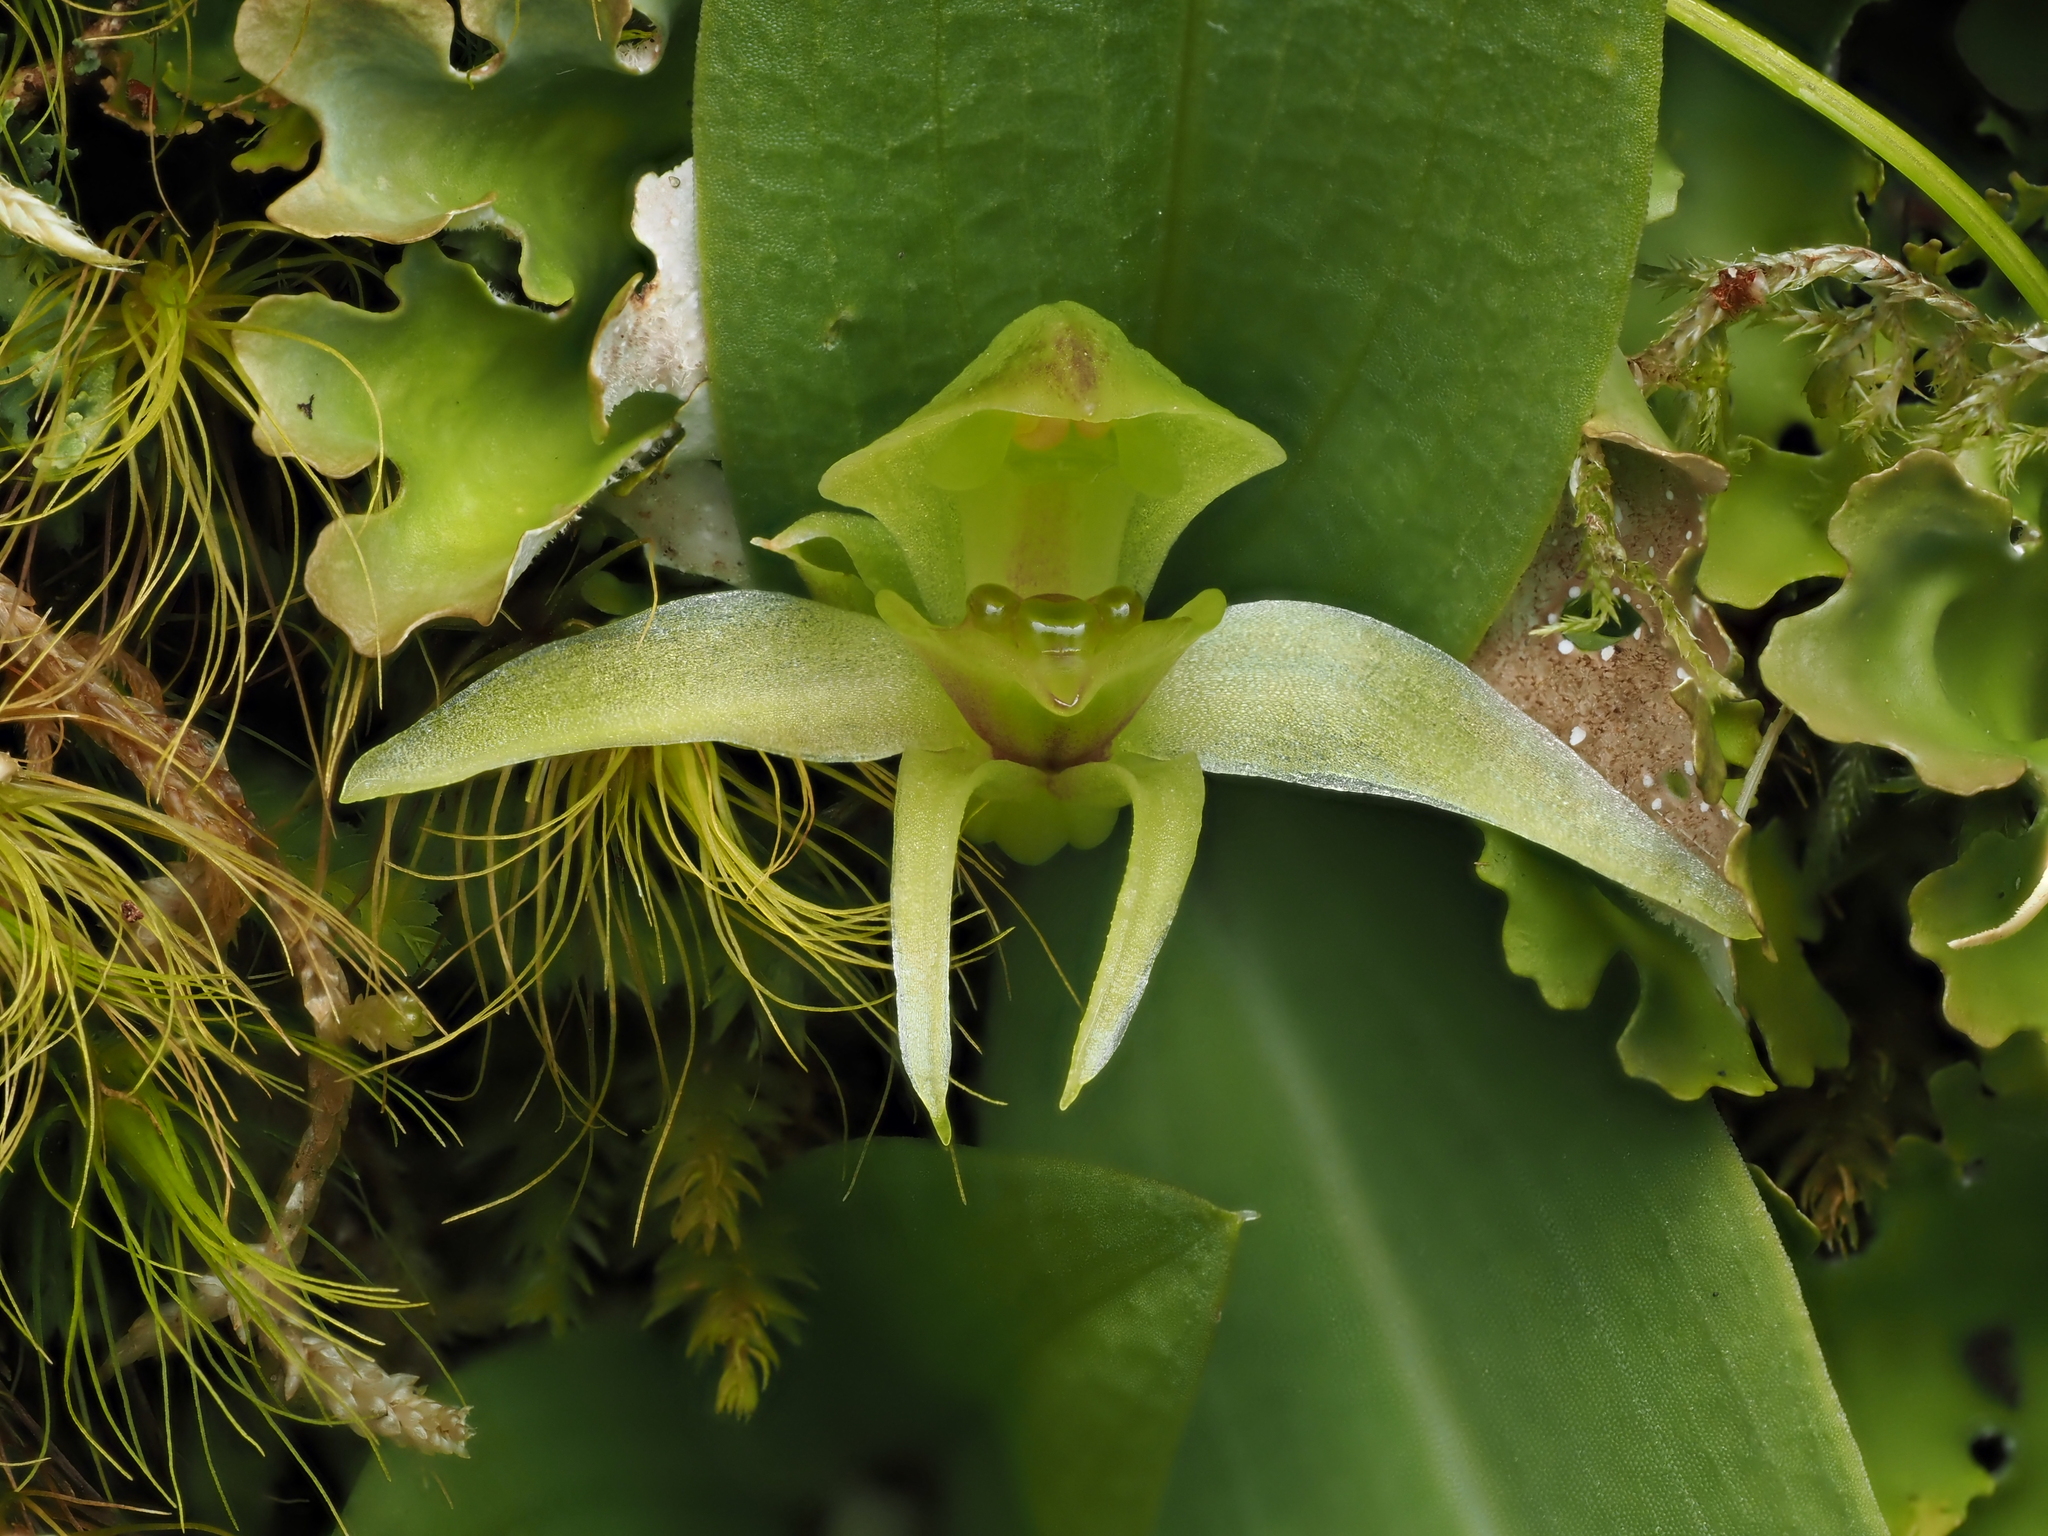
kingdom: Plantae
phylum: Tracheophyta
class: Liliopsida
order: Asparagales
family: Orchidaceae
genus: Chiloglottis
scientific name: Chiloglottis cornuta
